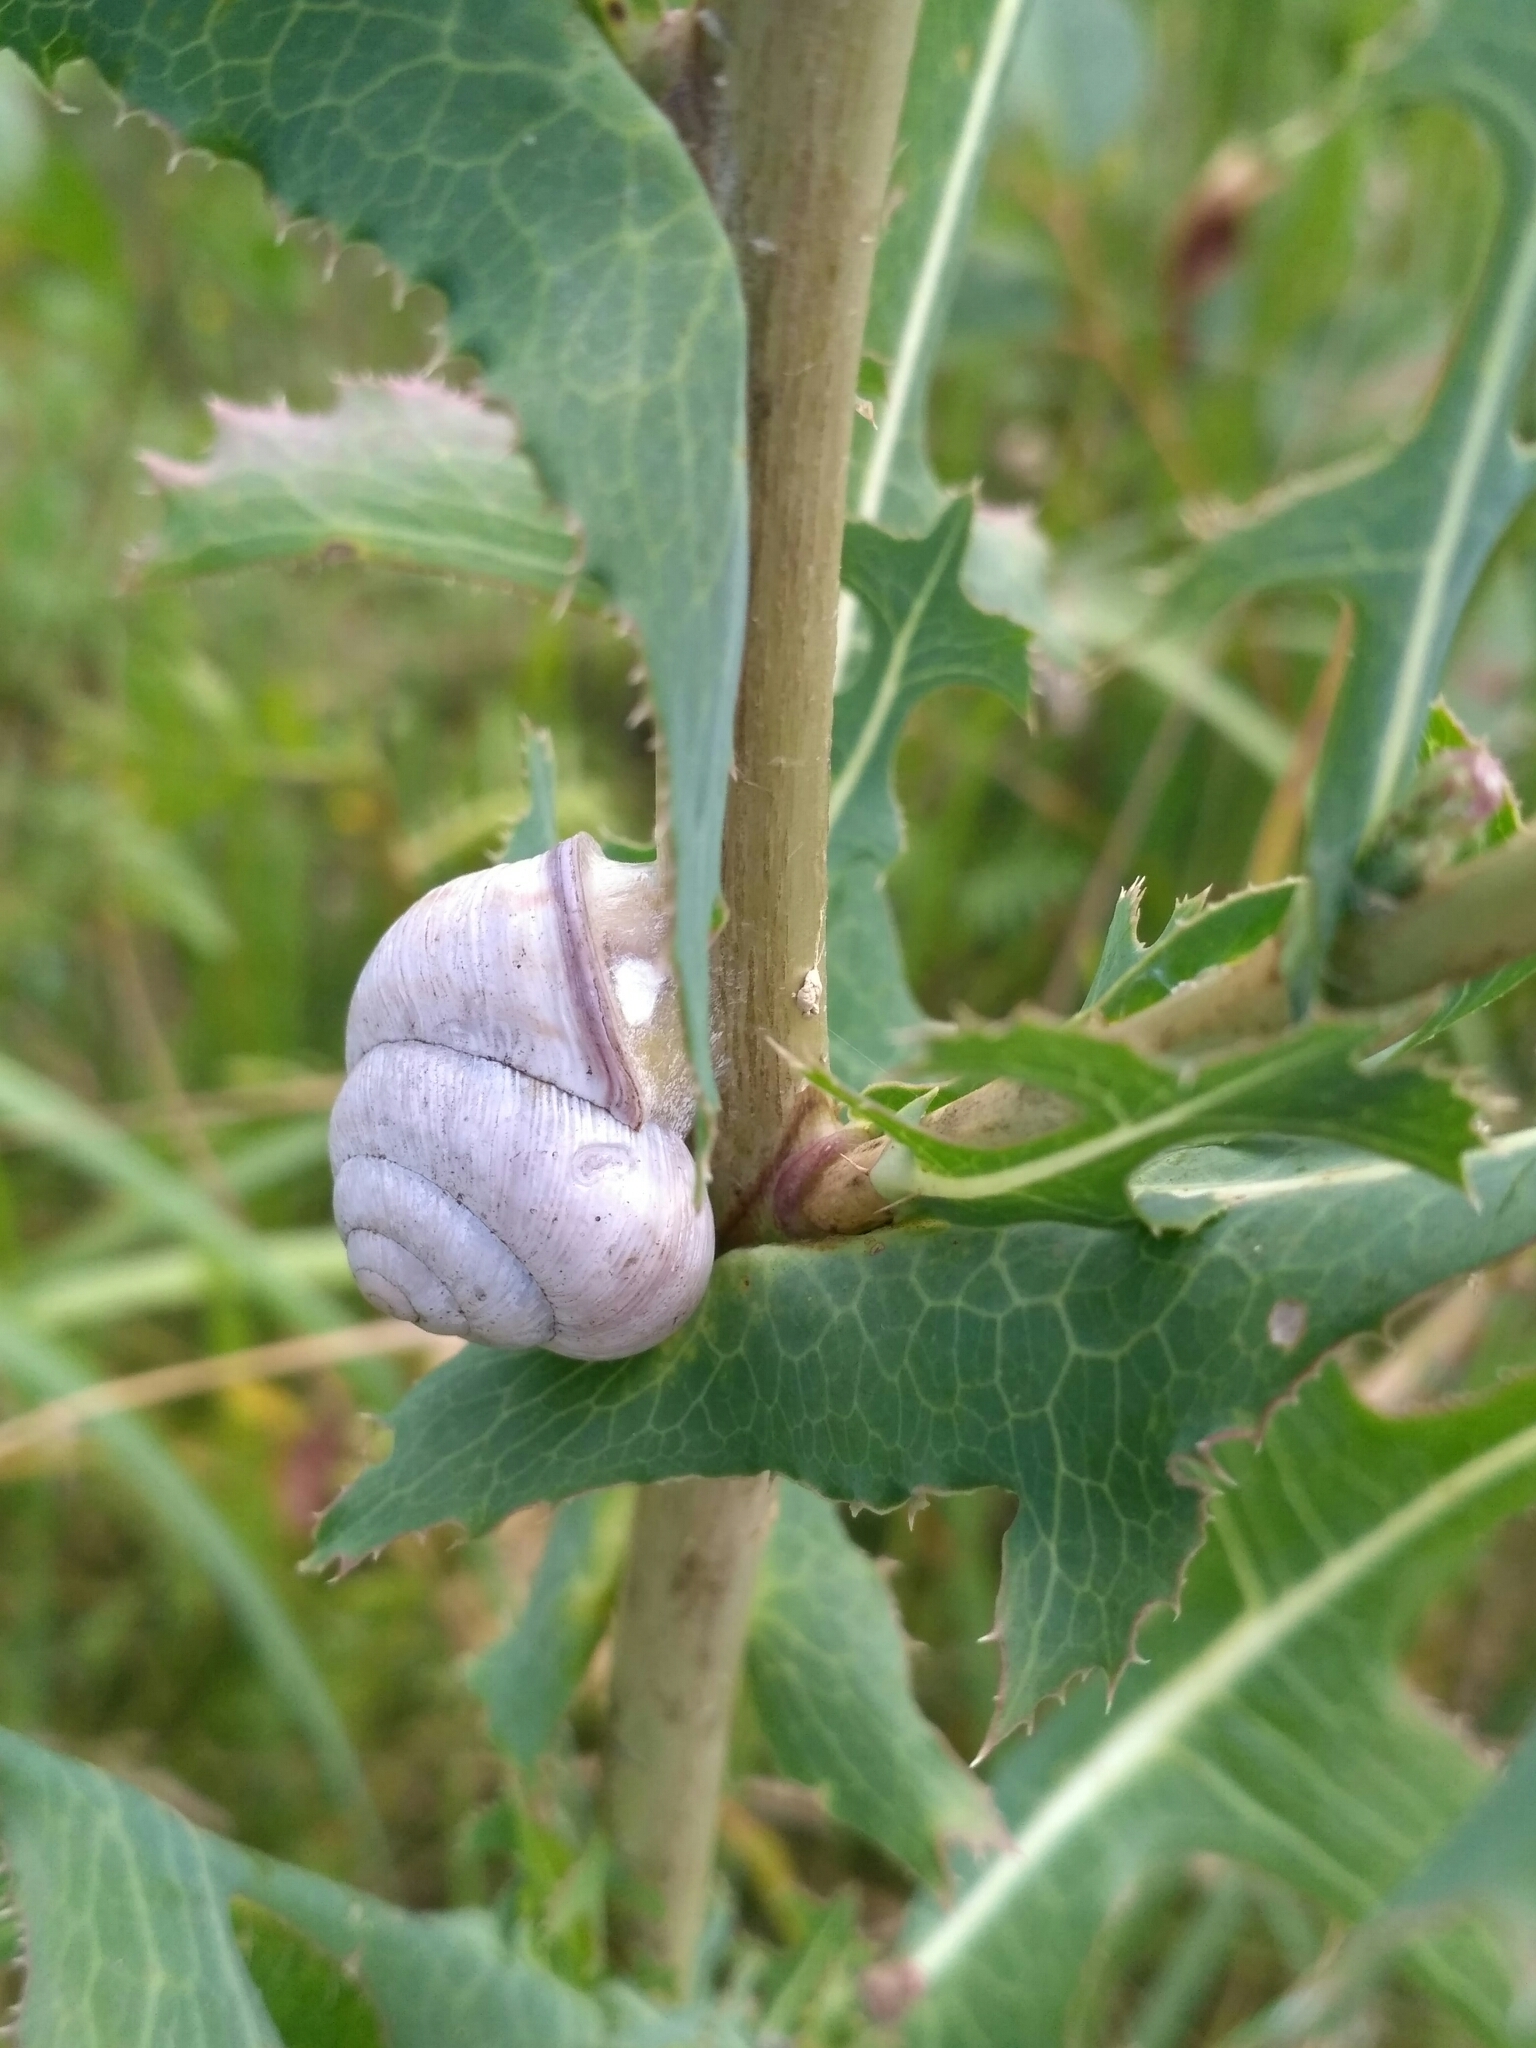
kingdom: Animalia
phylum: Mollusca
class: Gastropoda
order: Stylommatophora
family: Helicidae
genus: Caucasotachea
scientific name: Caucasotachea vindobonensis
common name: European helicid land snail
